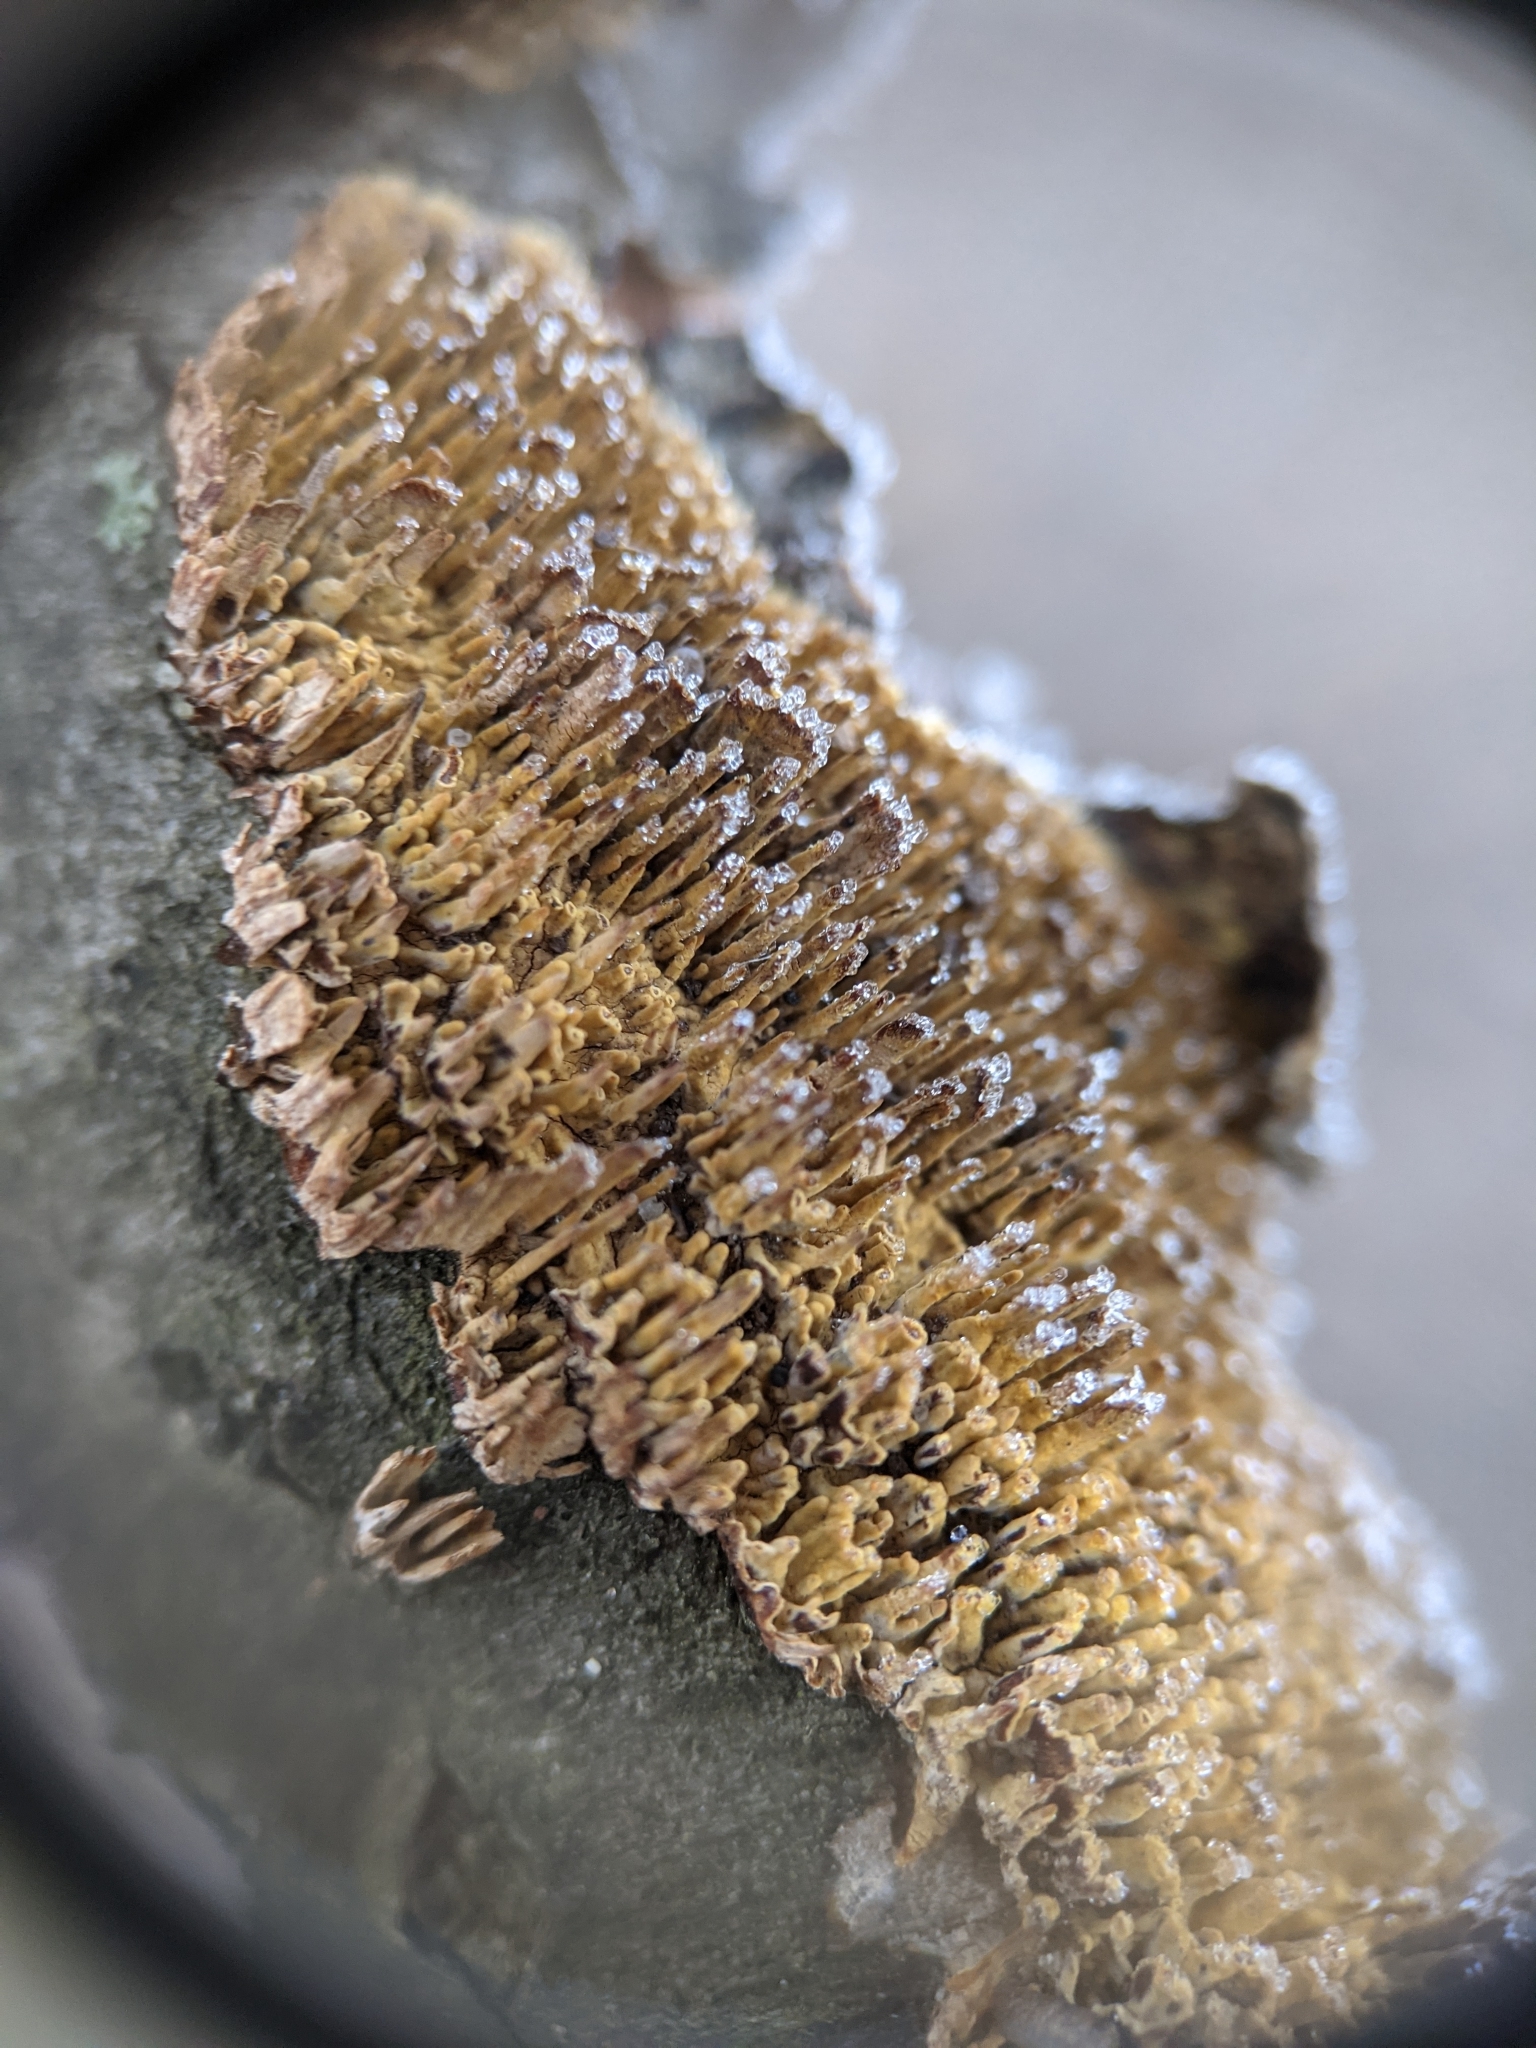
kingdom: Fungi
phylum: Basidiomycota
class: Agaricomycetes
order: Hymenochaetales
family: Hymenochaetaceae
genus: Hydnoporia
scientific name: Hydnoporia olivacea
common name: Brown-toothed crust fungus
